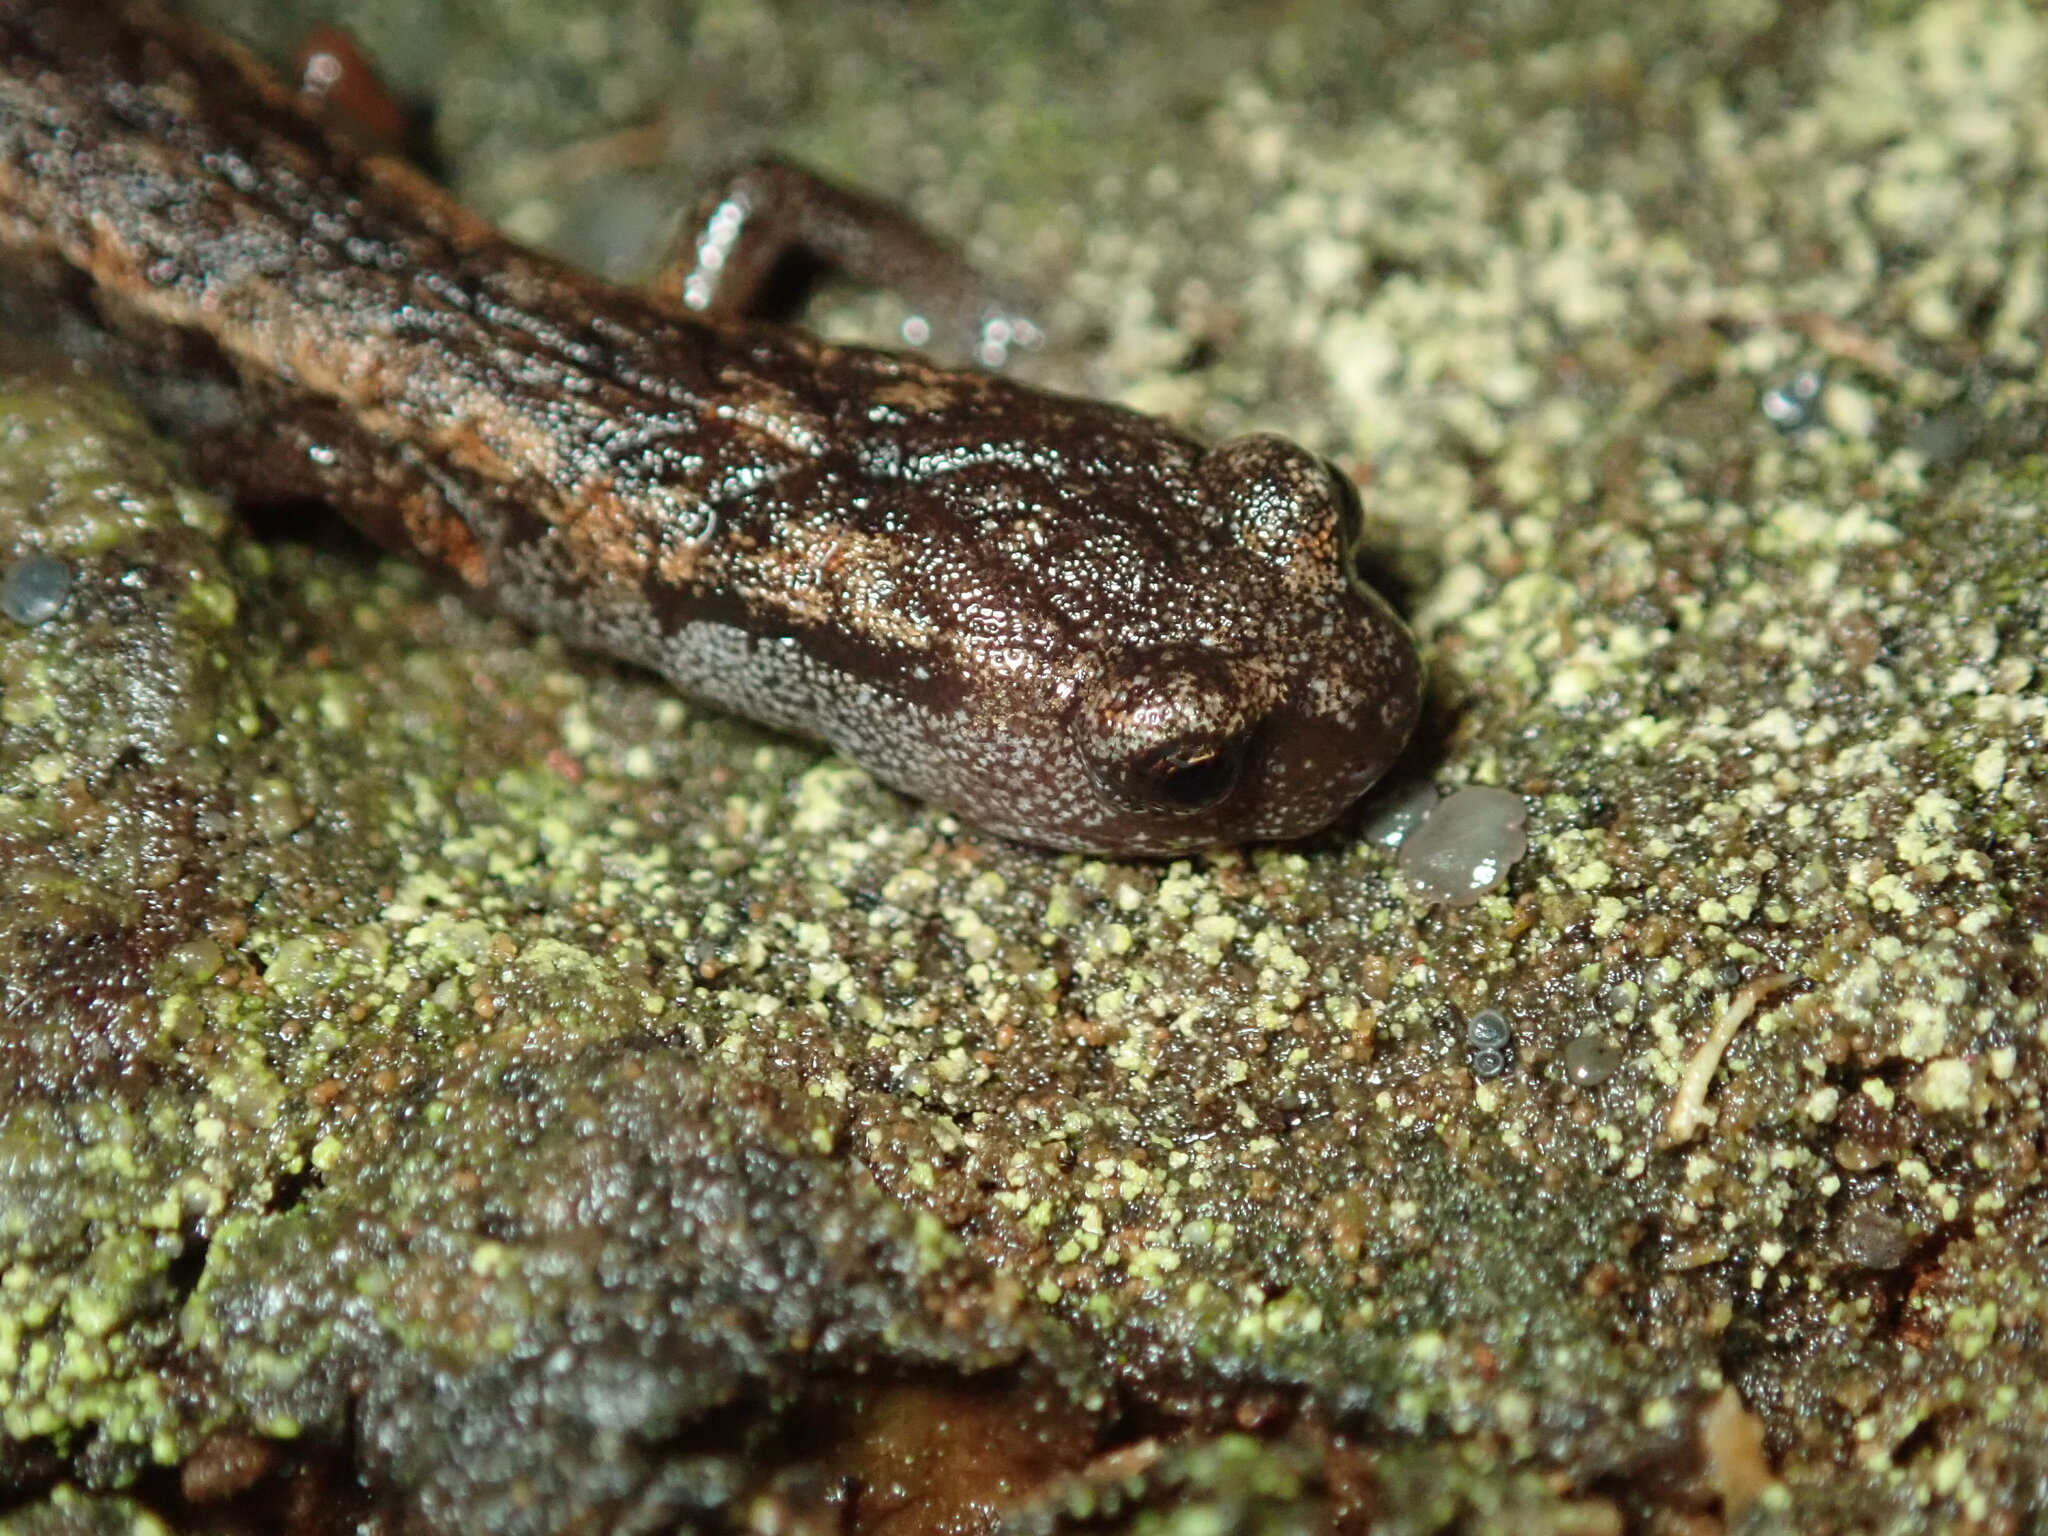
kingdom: Animalia
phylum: Chordata
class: Amphibia
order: Caudata
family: Plethodontidae
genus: Batrachoseps
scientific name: Batrachoseps attenuatus
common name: California slender salamander
